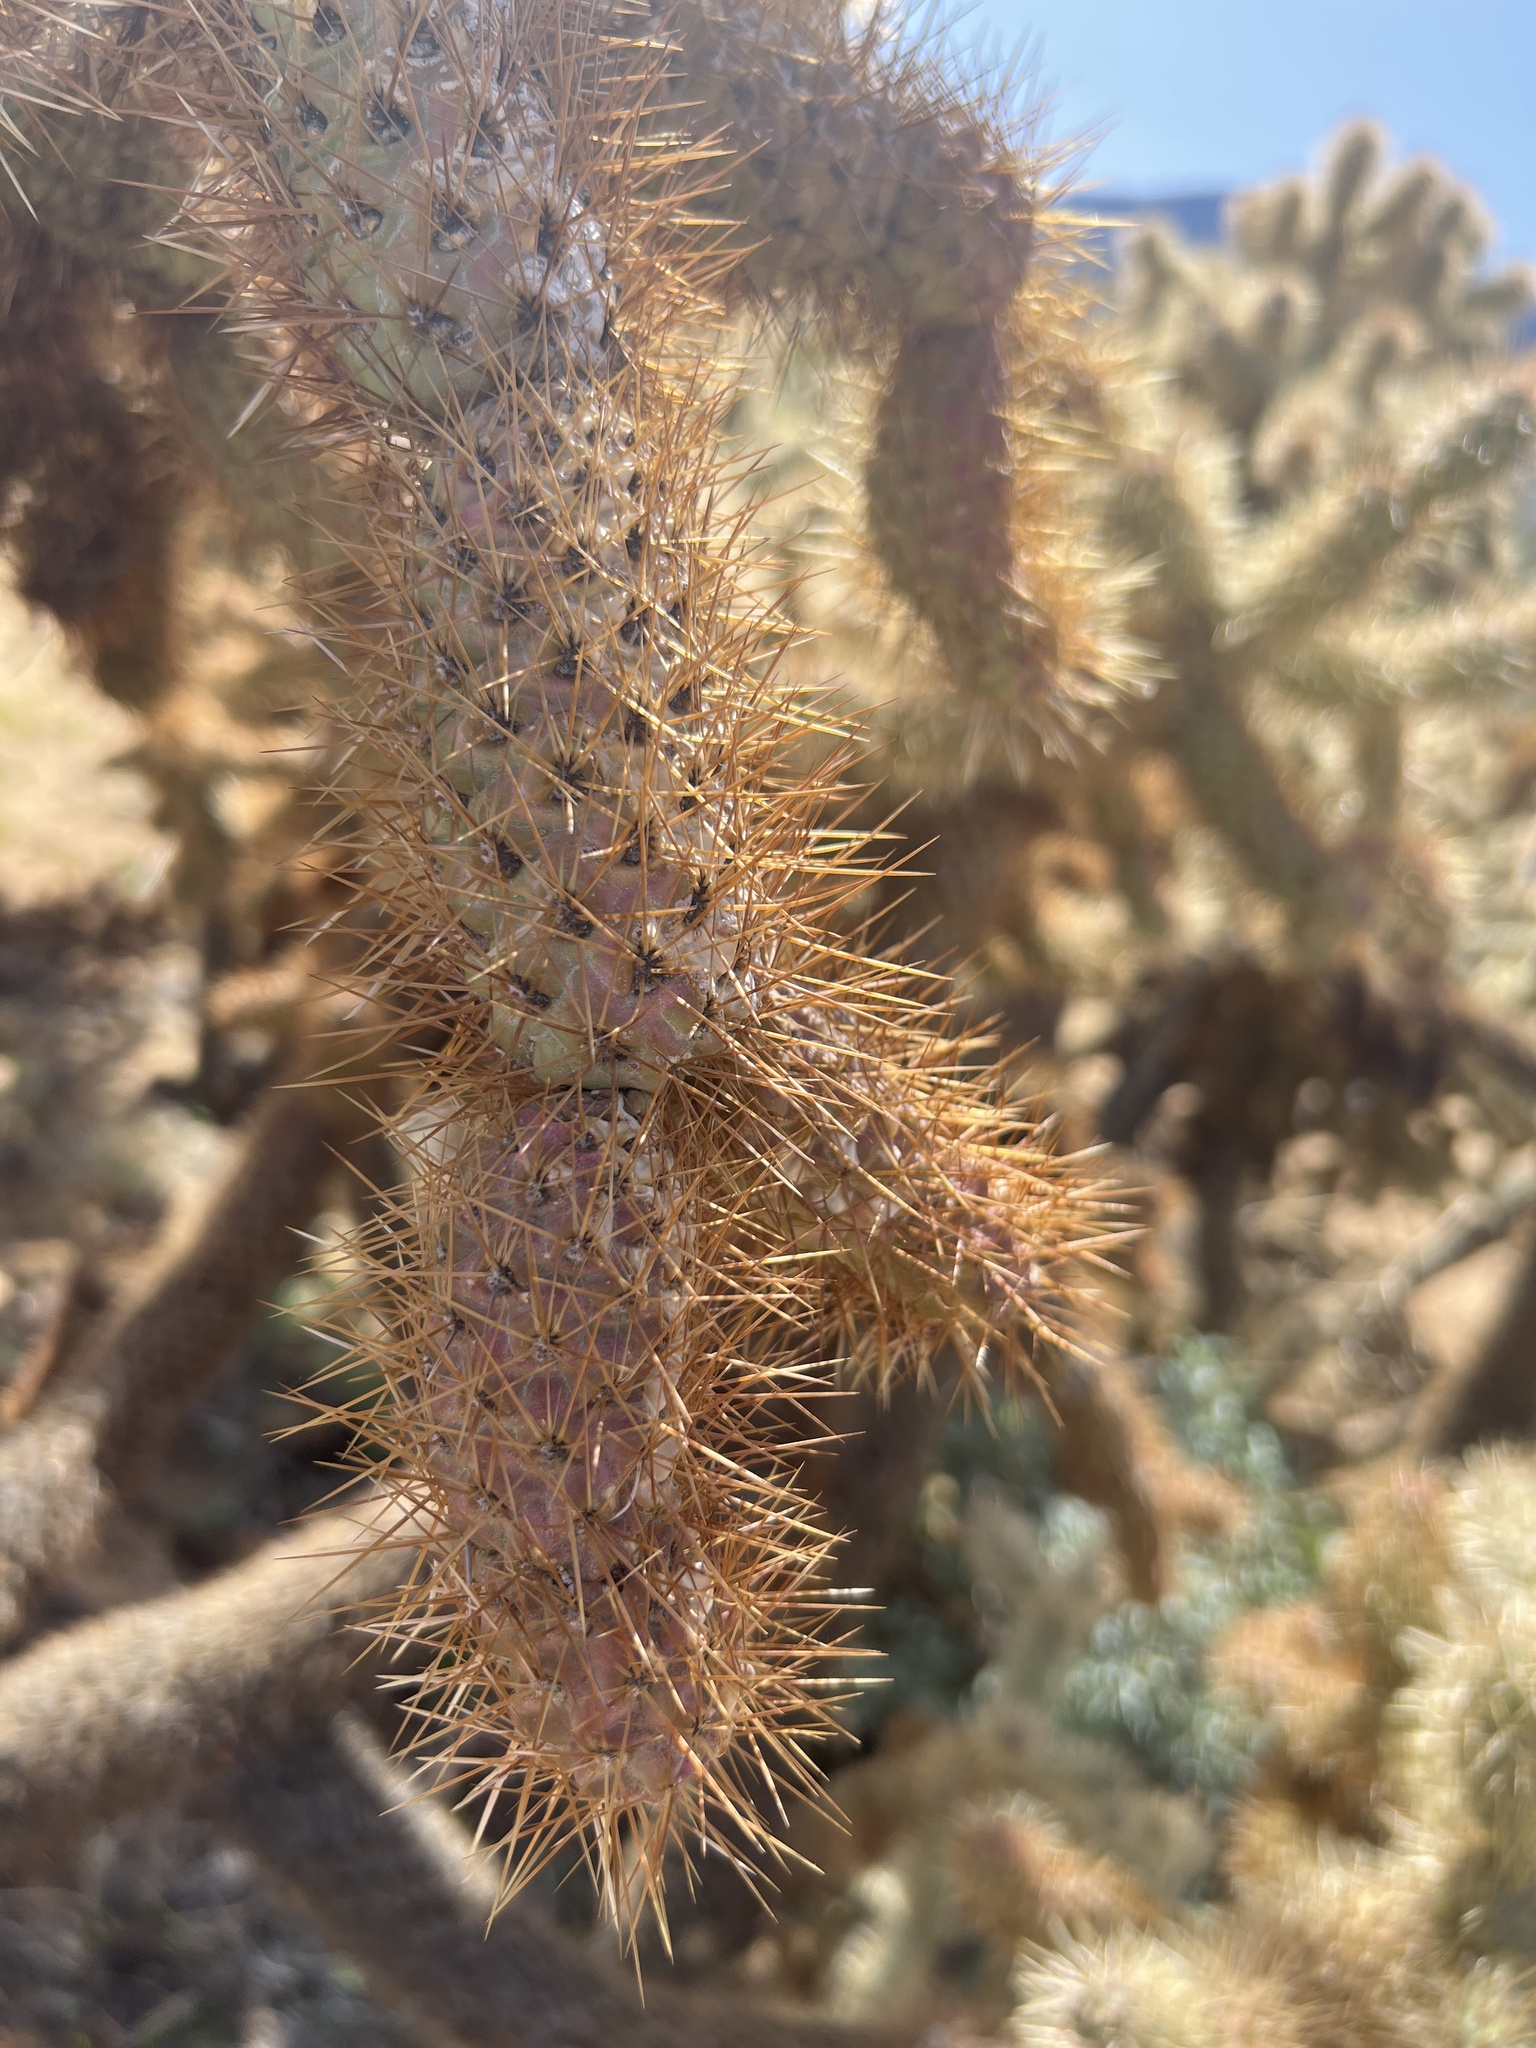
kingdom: Plantae
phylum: Tracheophyta
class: Magnoliopsida
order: Caryophyllales
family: Cactaceae
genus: Cylindropuntia
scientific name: Cylindropuntia fosbergii
